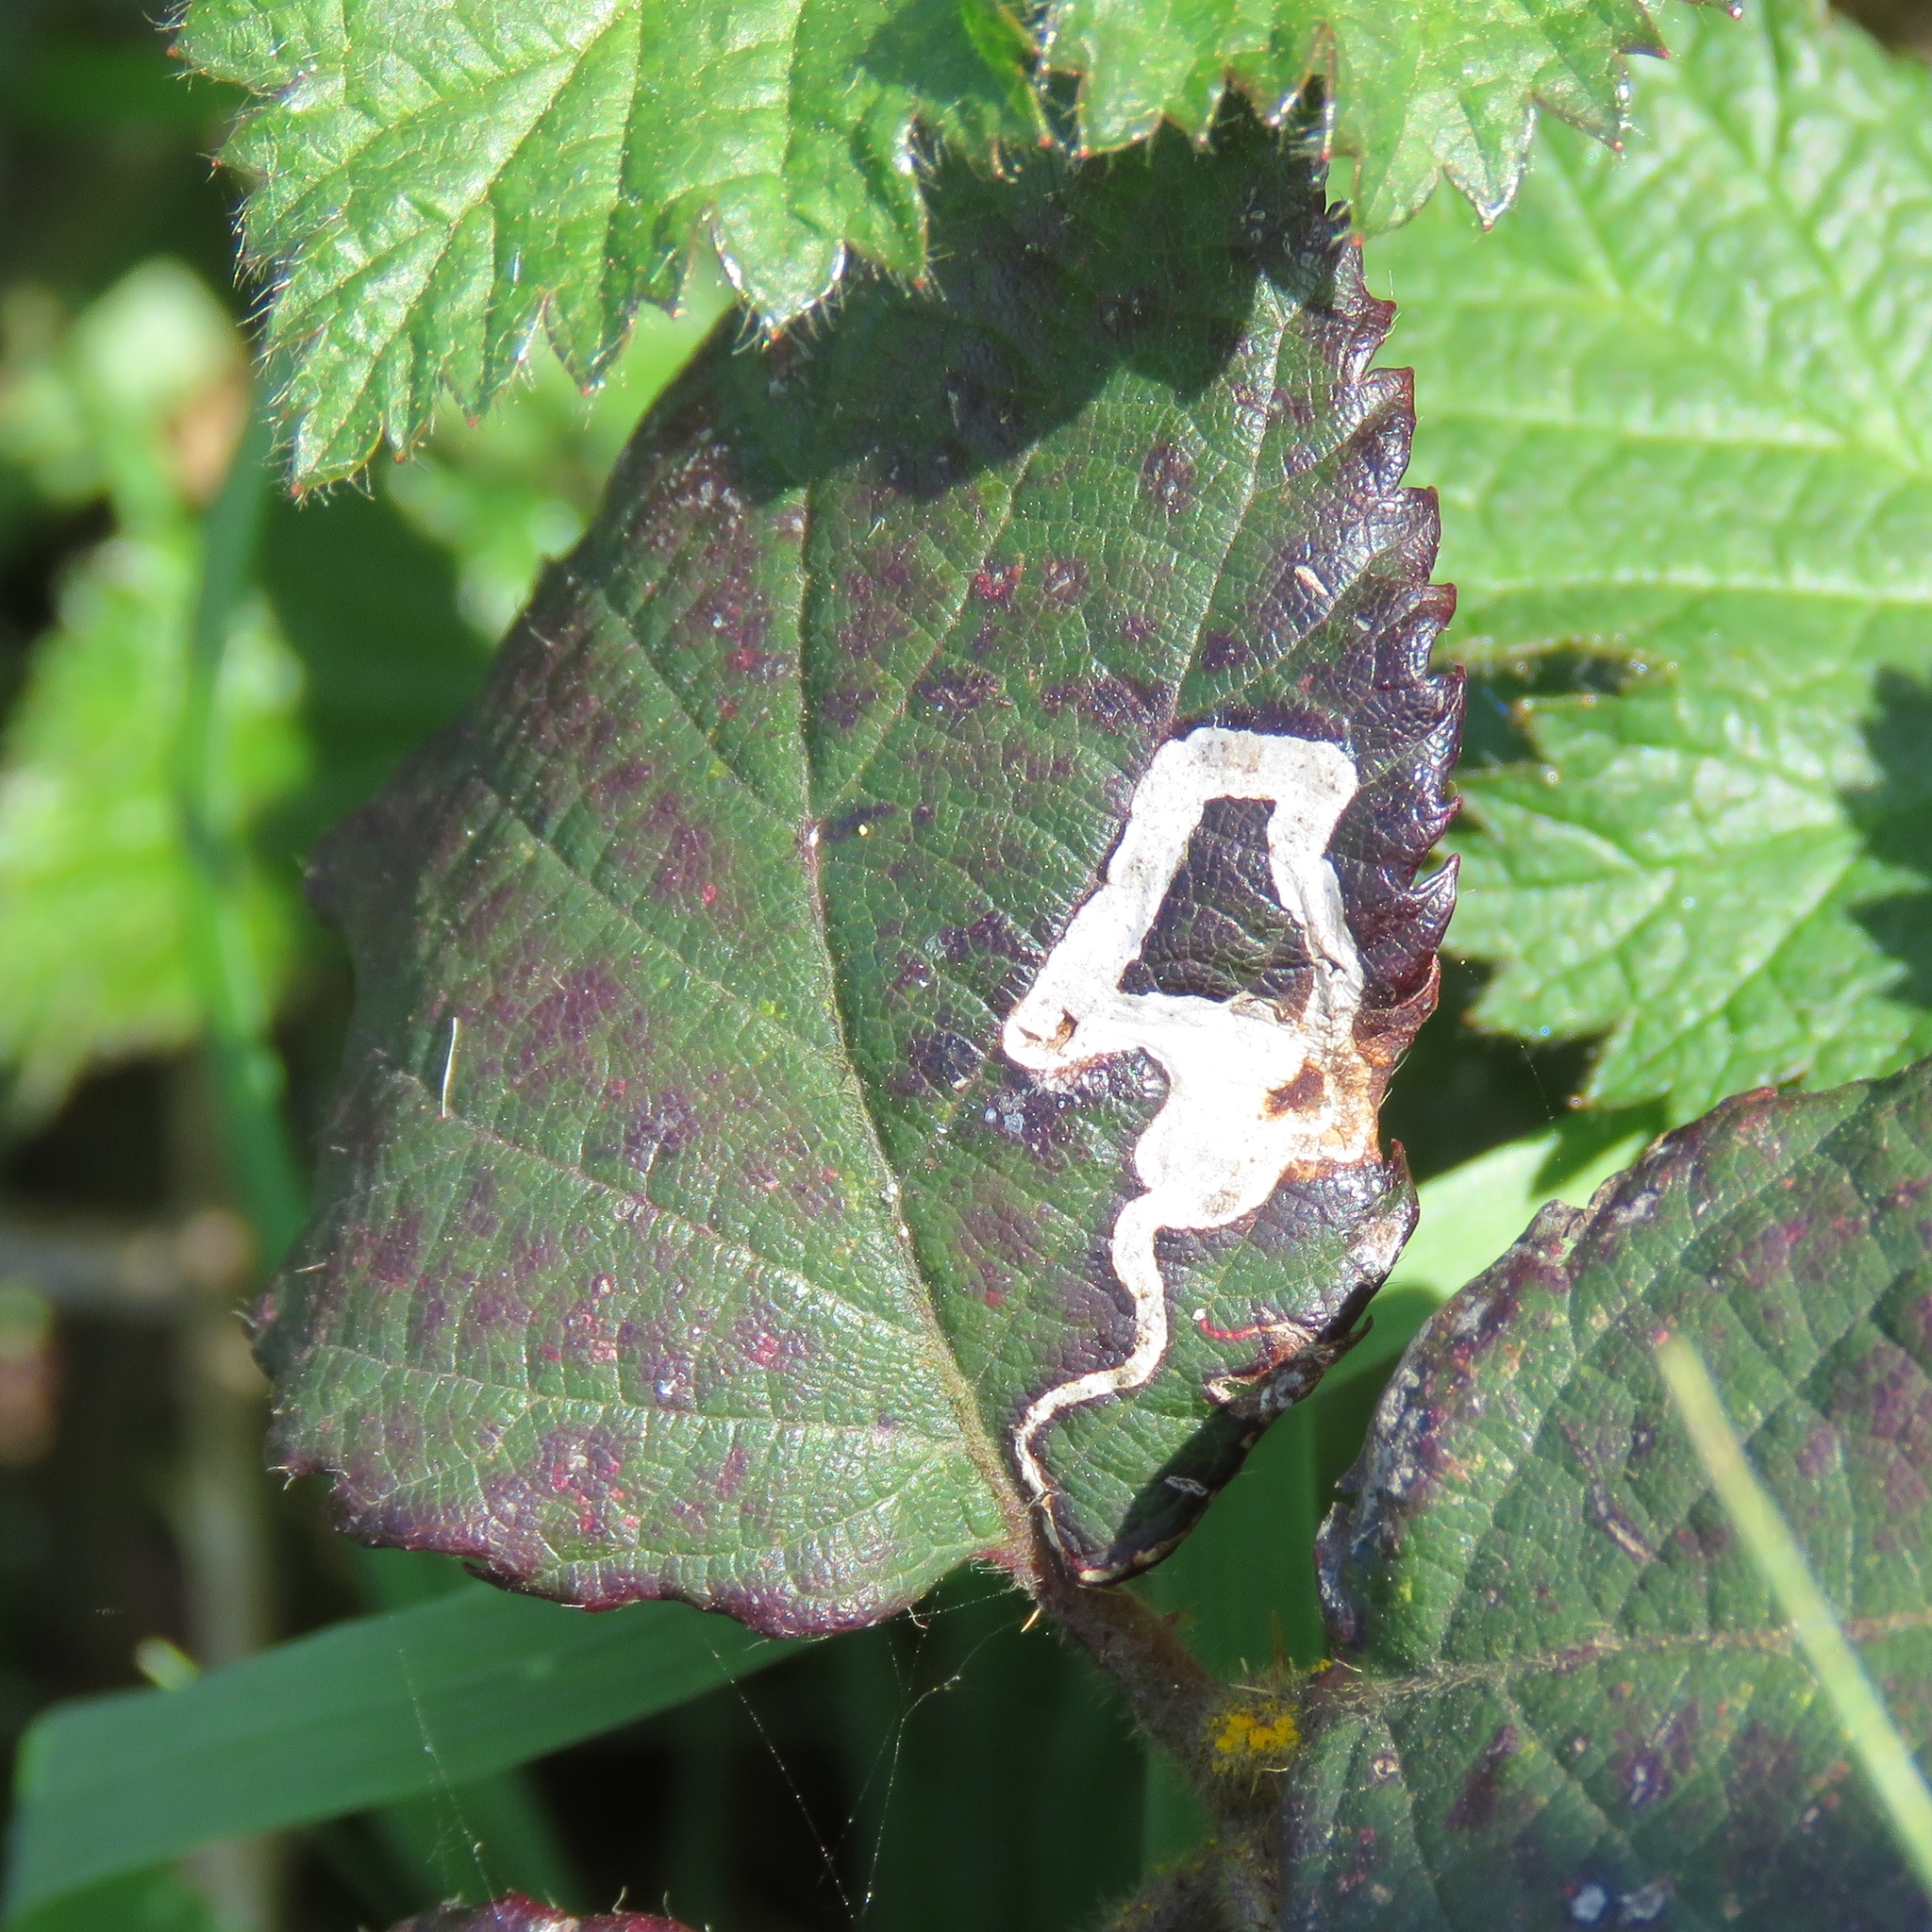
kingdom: Animalia
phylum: Arthropoda
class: Insecta
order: Lepidoptera
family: Nepticulidae
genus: Stigmella
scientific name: Stigmella aurella
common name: Golden pigmy
